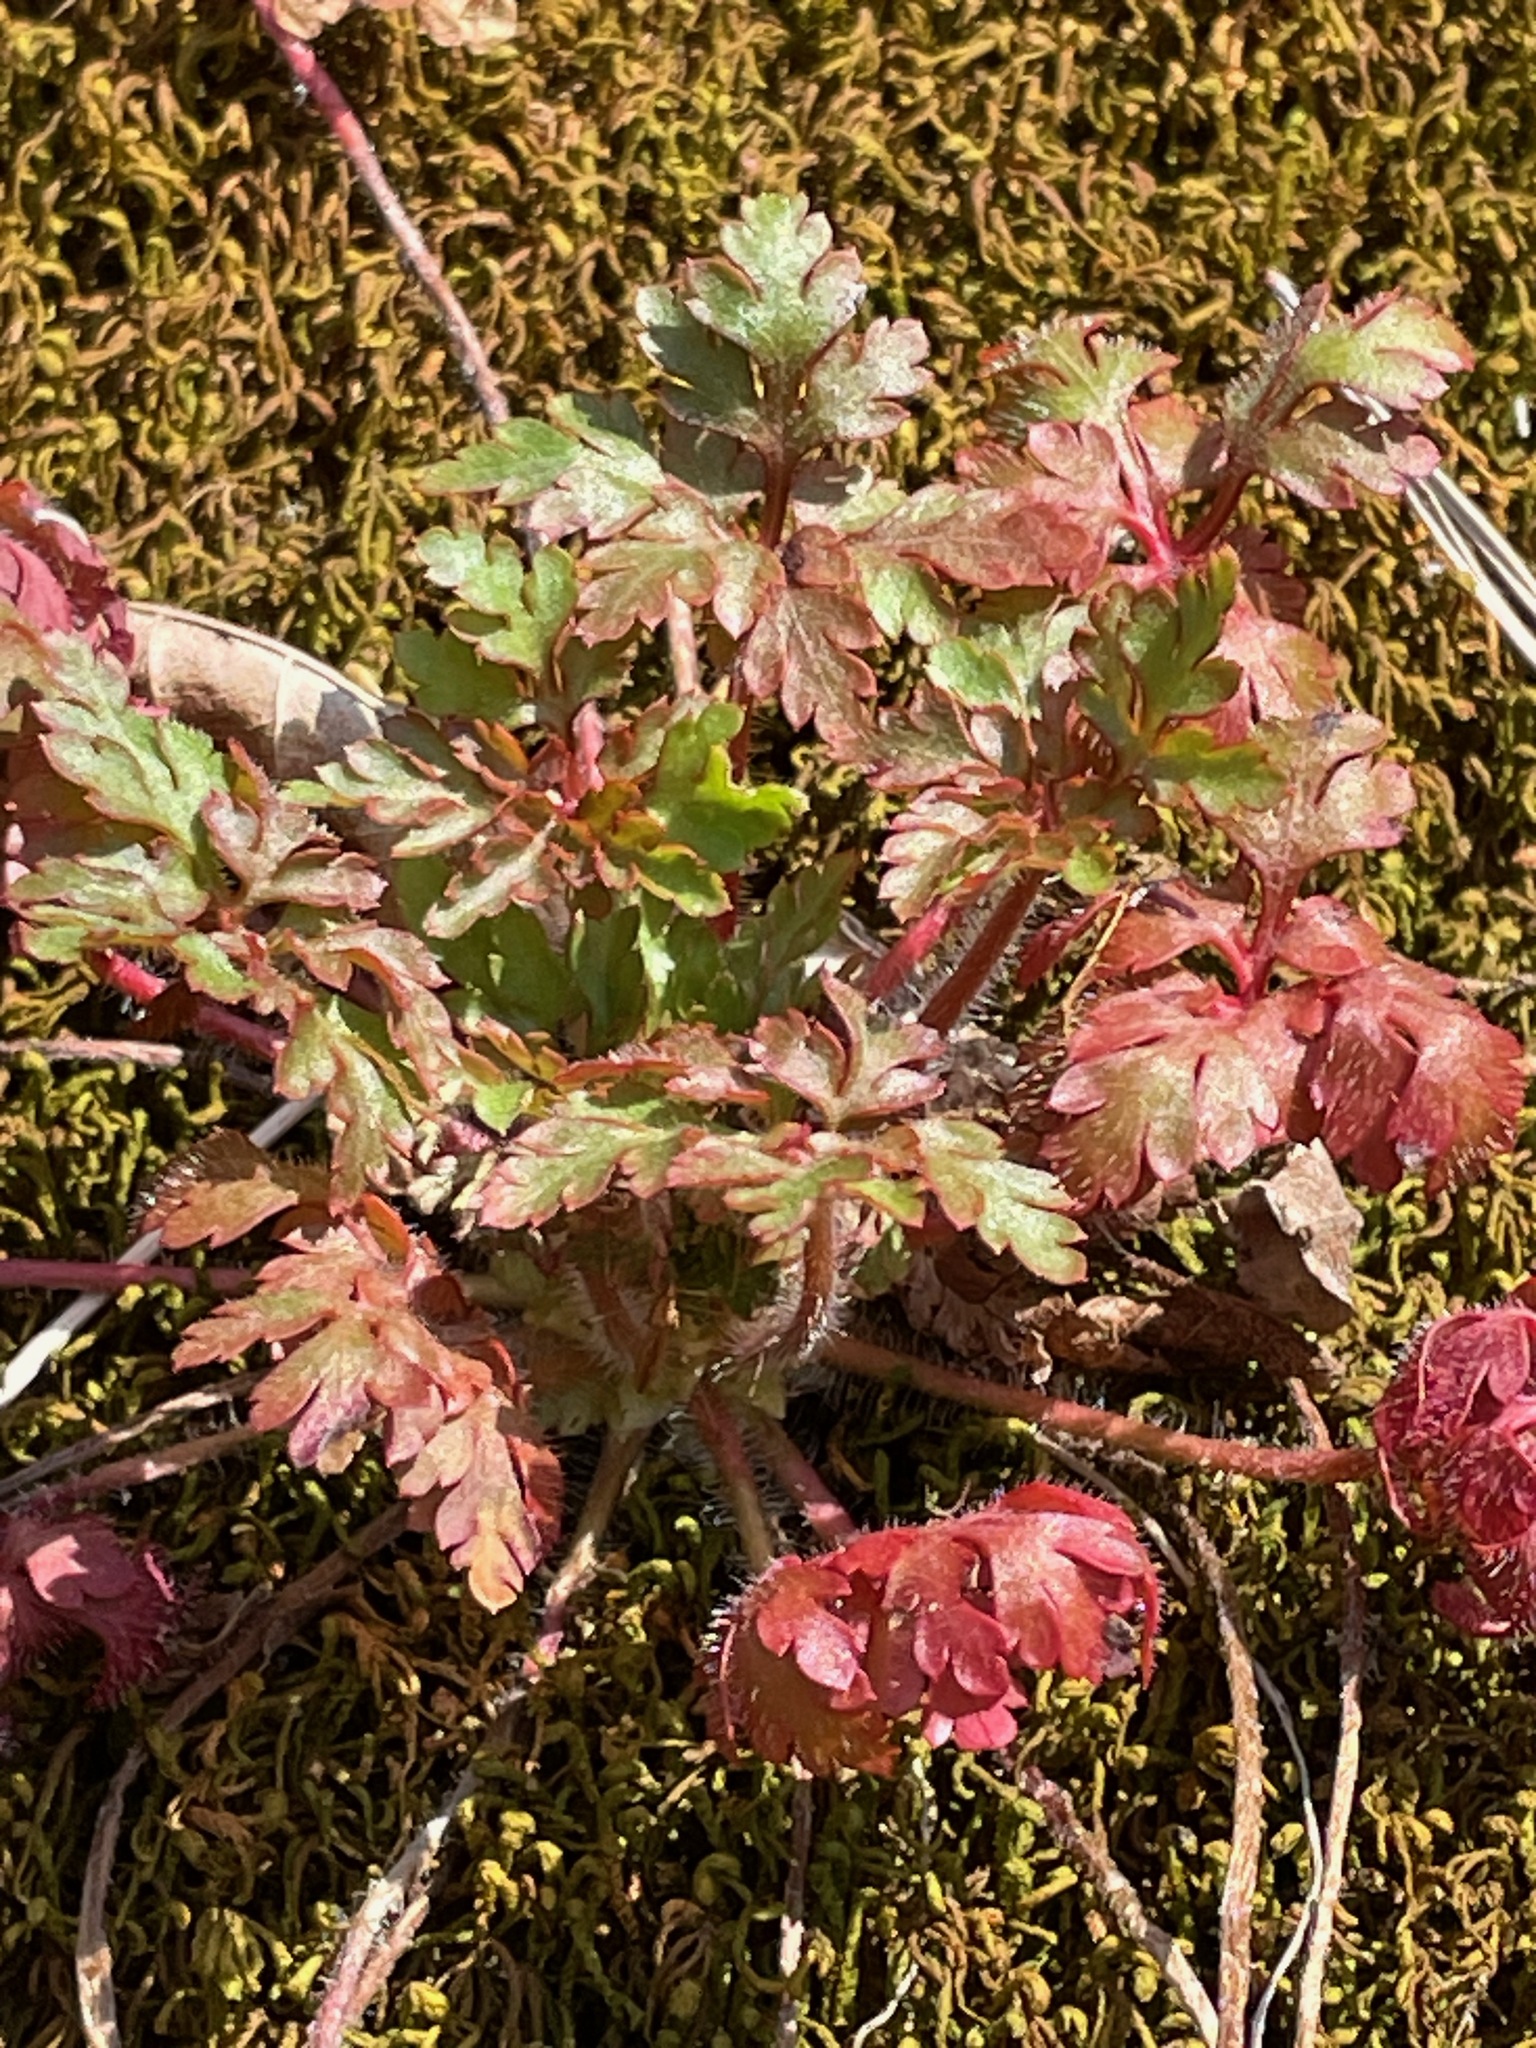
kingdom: Plantae
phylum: Tracheophyta
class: Magnoliopsida
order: Geraniales
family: Geraniaceae
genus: Geranium
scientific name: Geranium robertianum
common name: Herb-robert
